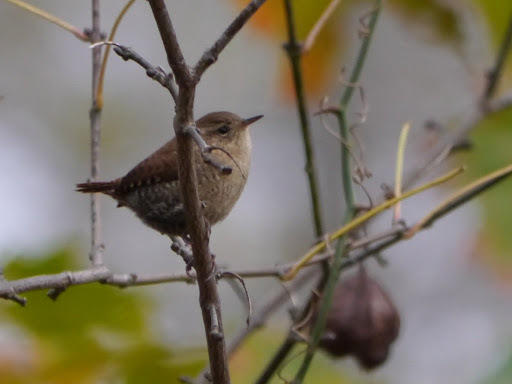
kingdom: Animalia
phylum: Chordata
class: Aves
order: Passeriformes
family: Troglodytidae
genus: Troglodytes
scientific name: Troglodytes hiemalis
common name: Winter wren
